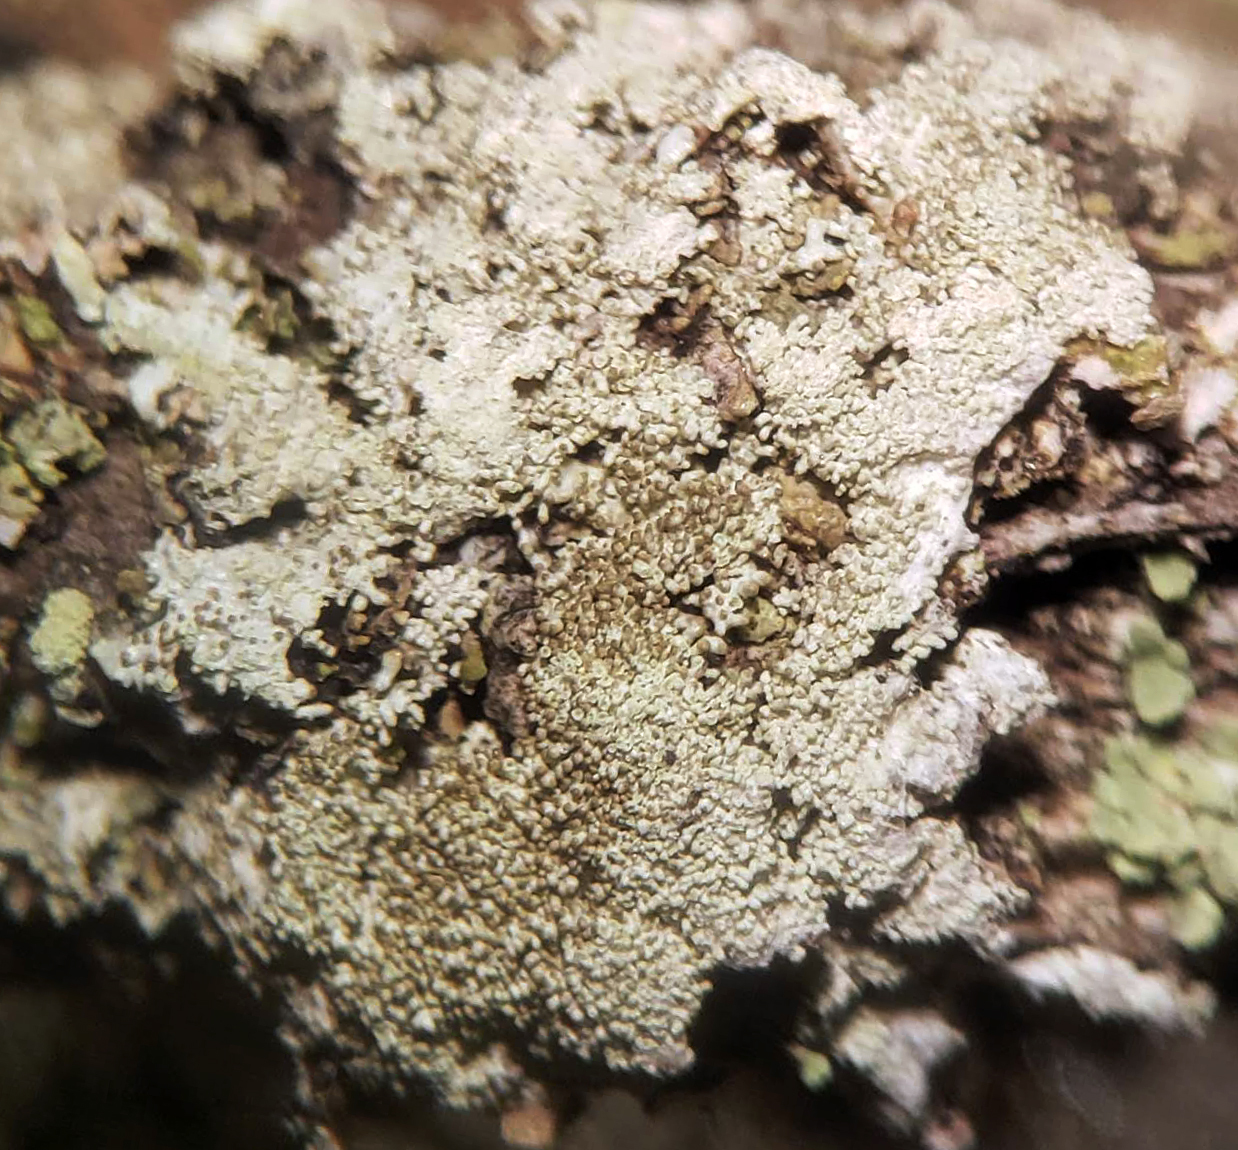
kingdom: Fungi
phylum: Ascomycota
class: Lecanoromycetes
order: Lecanorales
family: Parmeliaceae
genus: Imshaugia
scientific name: Imshaugia aleurites
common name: Salted starburst lichen
